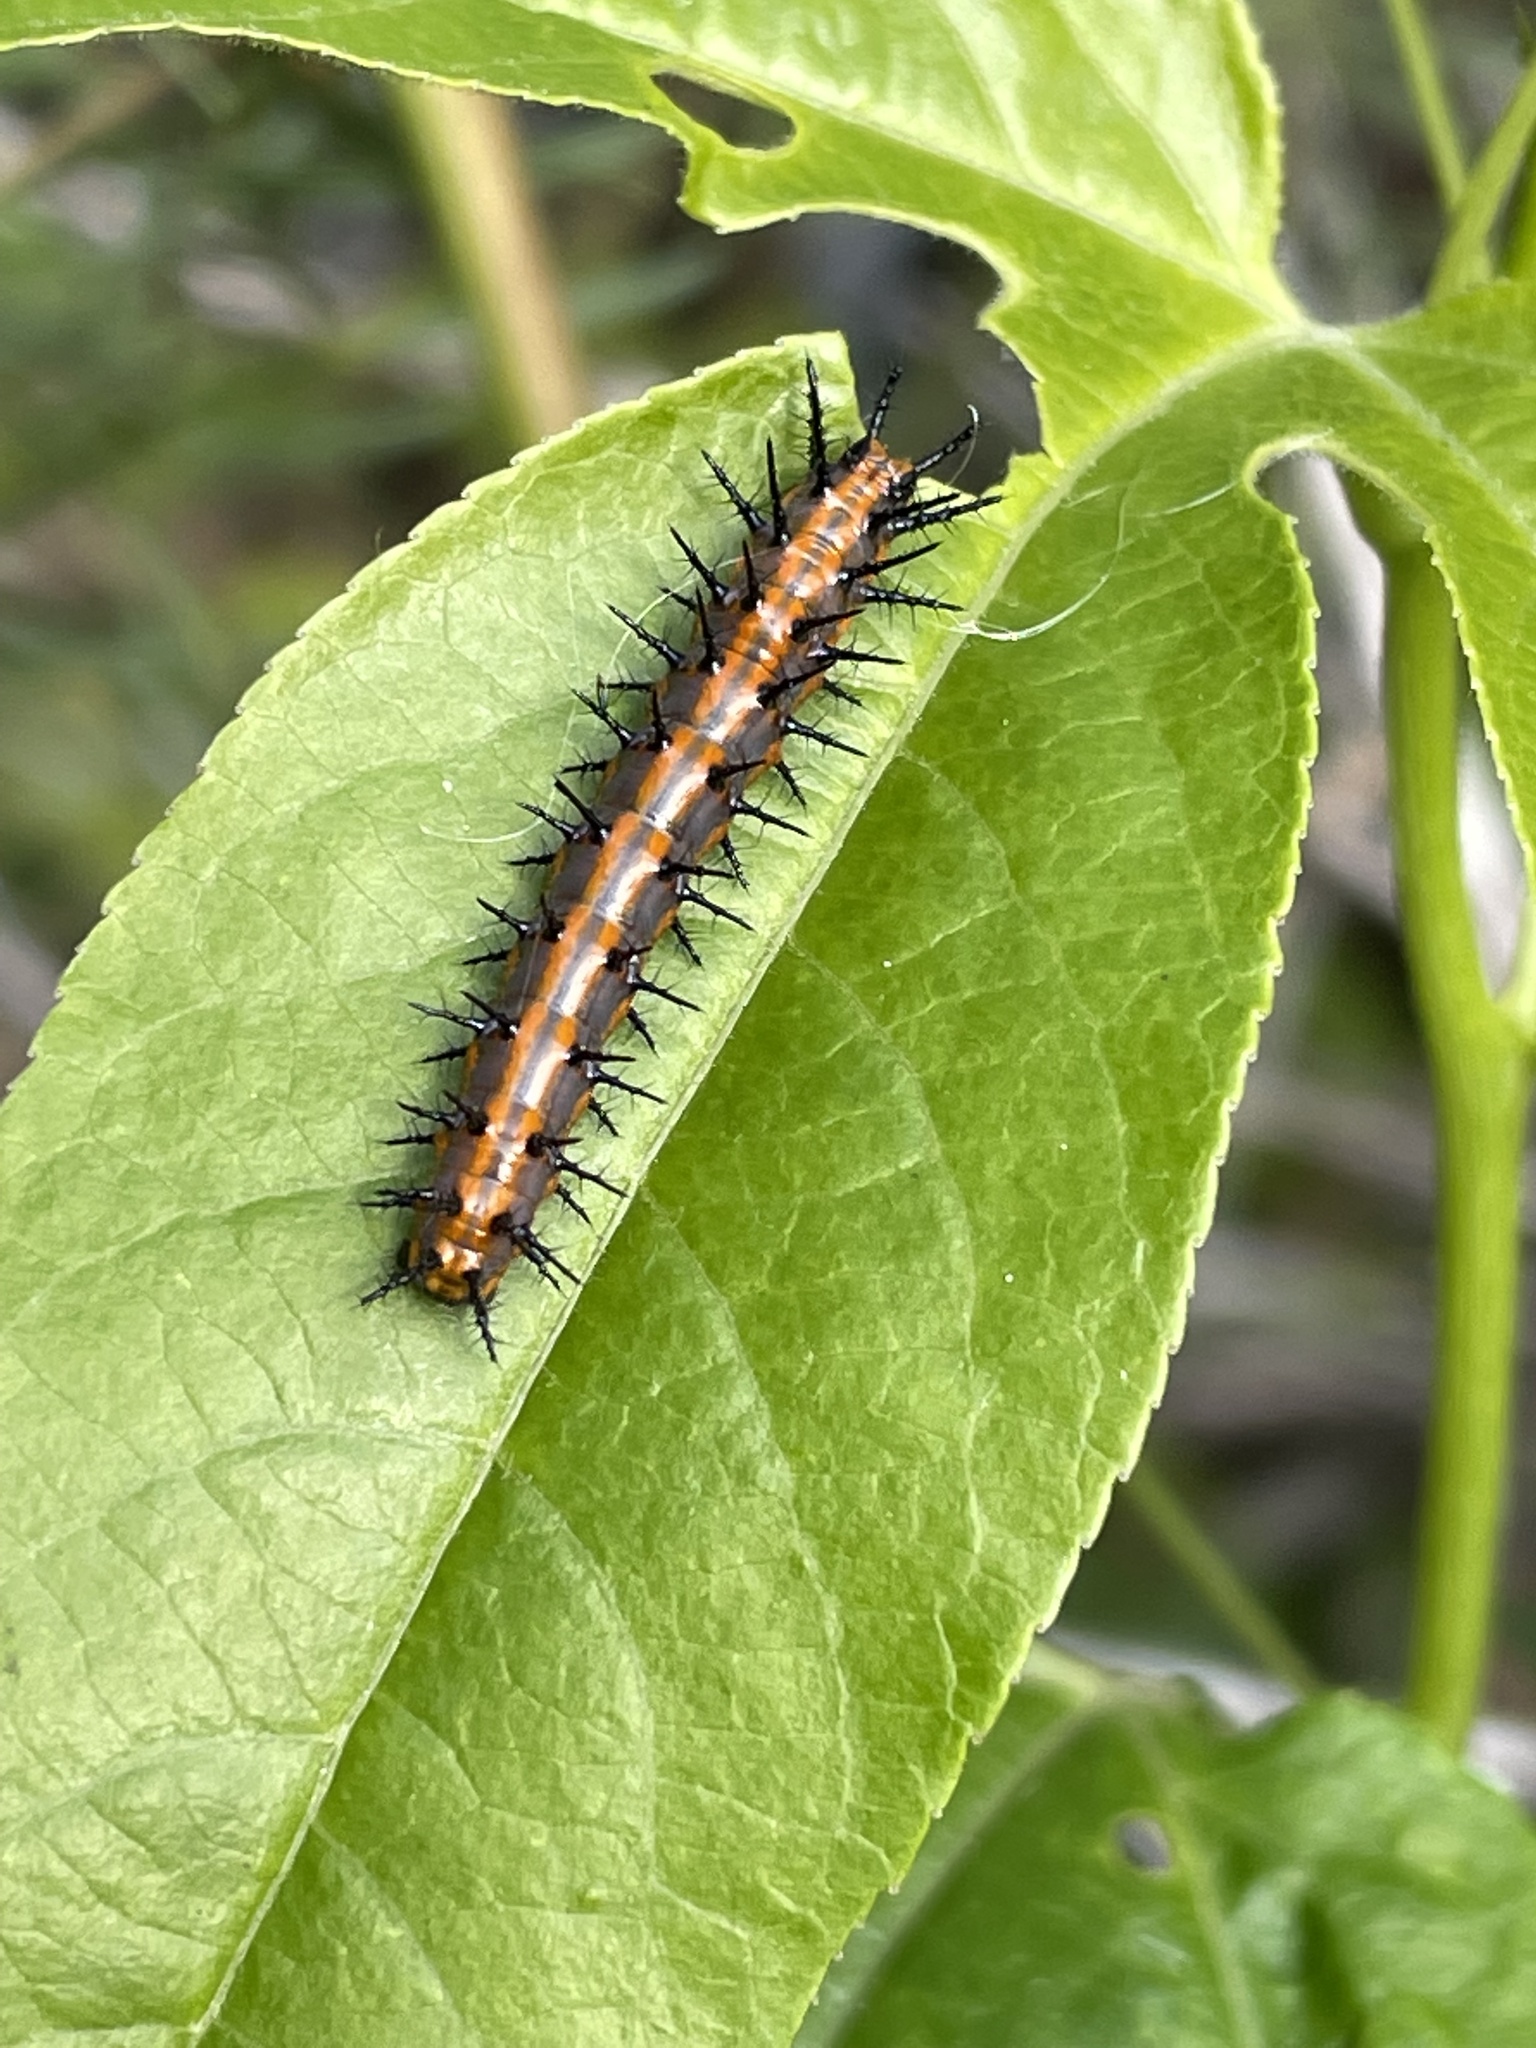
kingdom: Animalia
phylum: Arthropoda
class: Insecta
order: Lepidoptera
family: Nymphalidae
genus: Dione
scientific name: Dione vanillae
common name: Gulf fritillary
